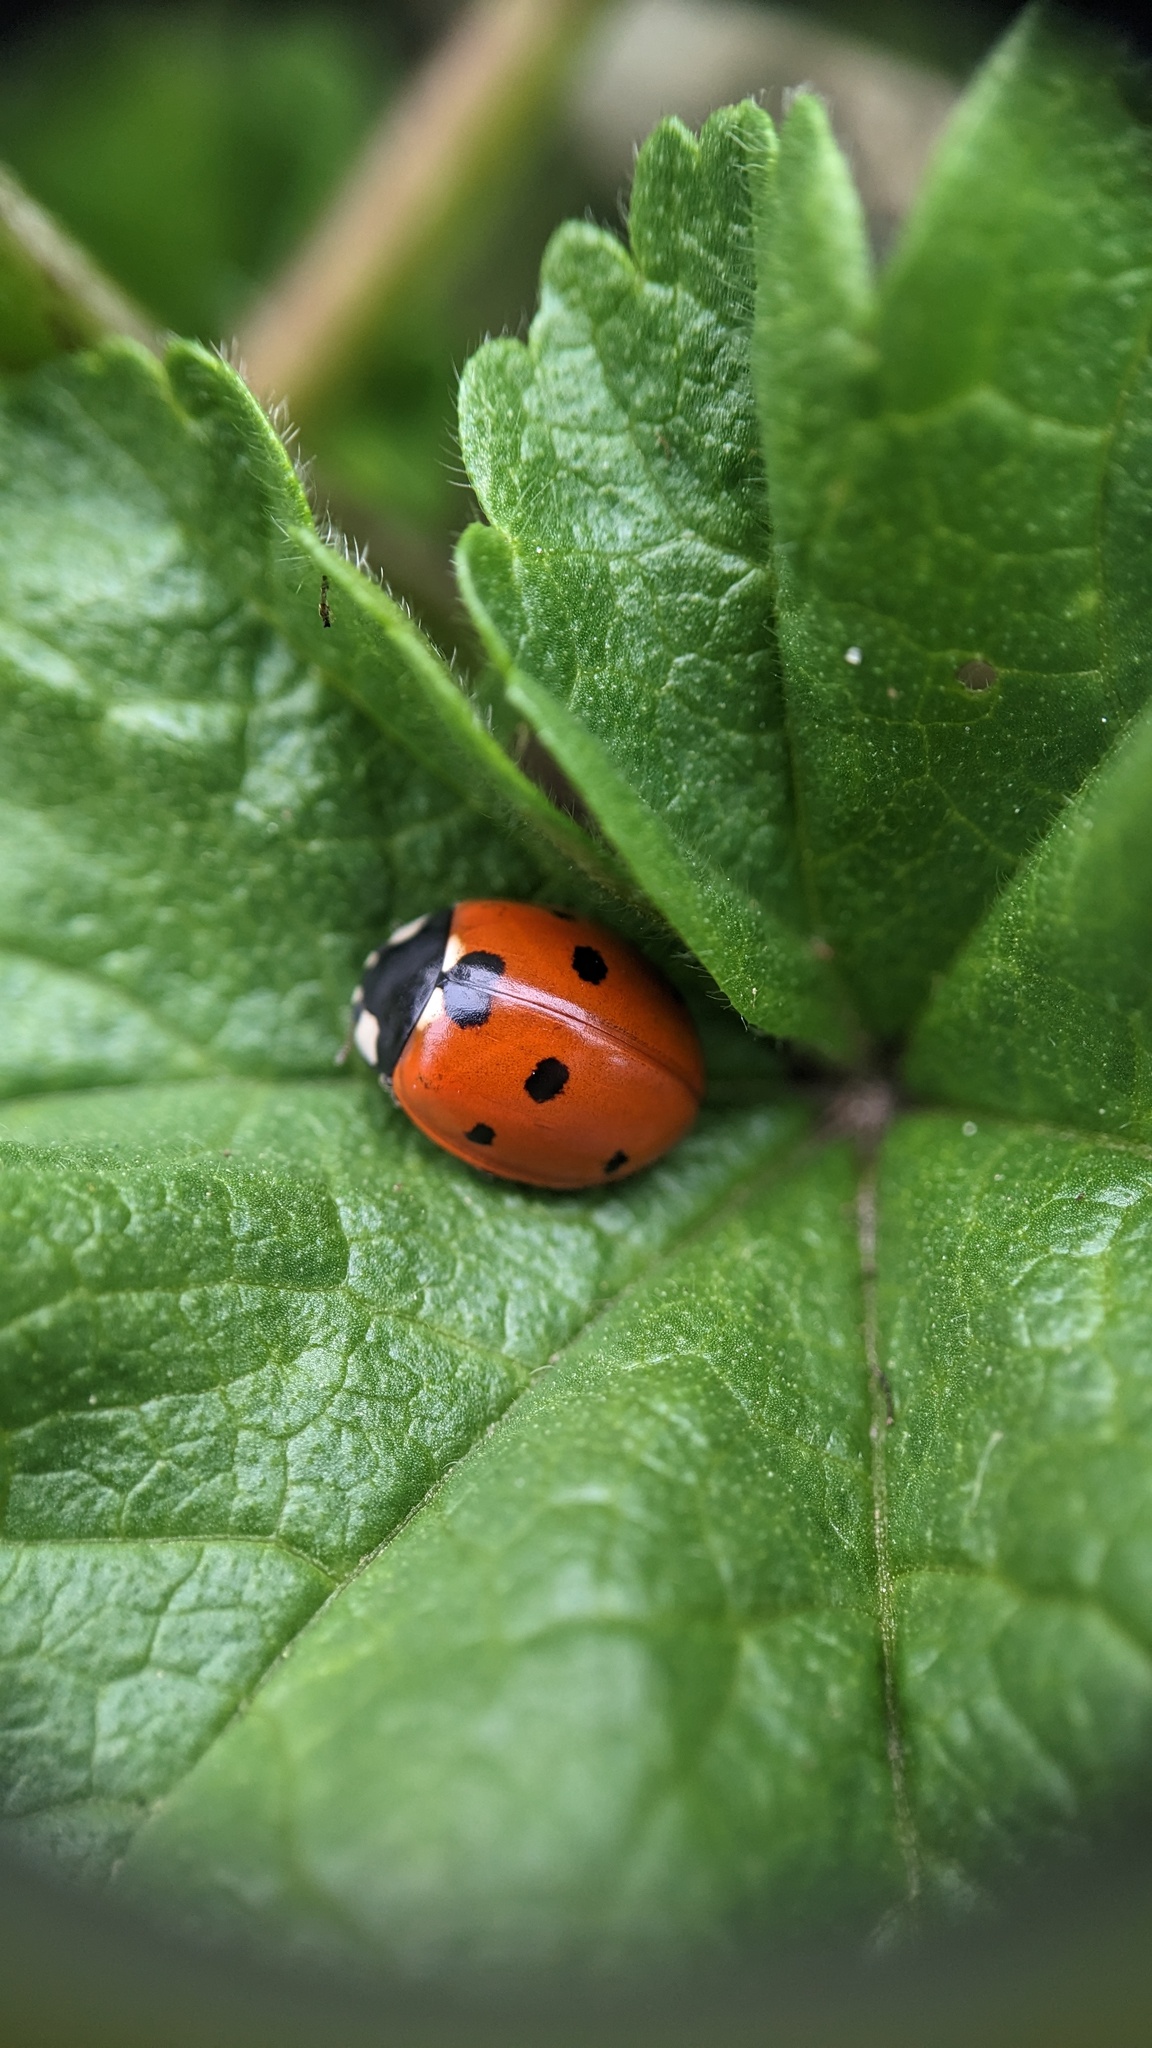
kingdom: Animalia
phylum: Arthropoda
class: Insecta
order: Coleoptera
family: Coccinellidae
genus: Coccinella
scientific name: Coccinella septempunctata
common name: Sevenspotted lady beetle
